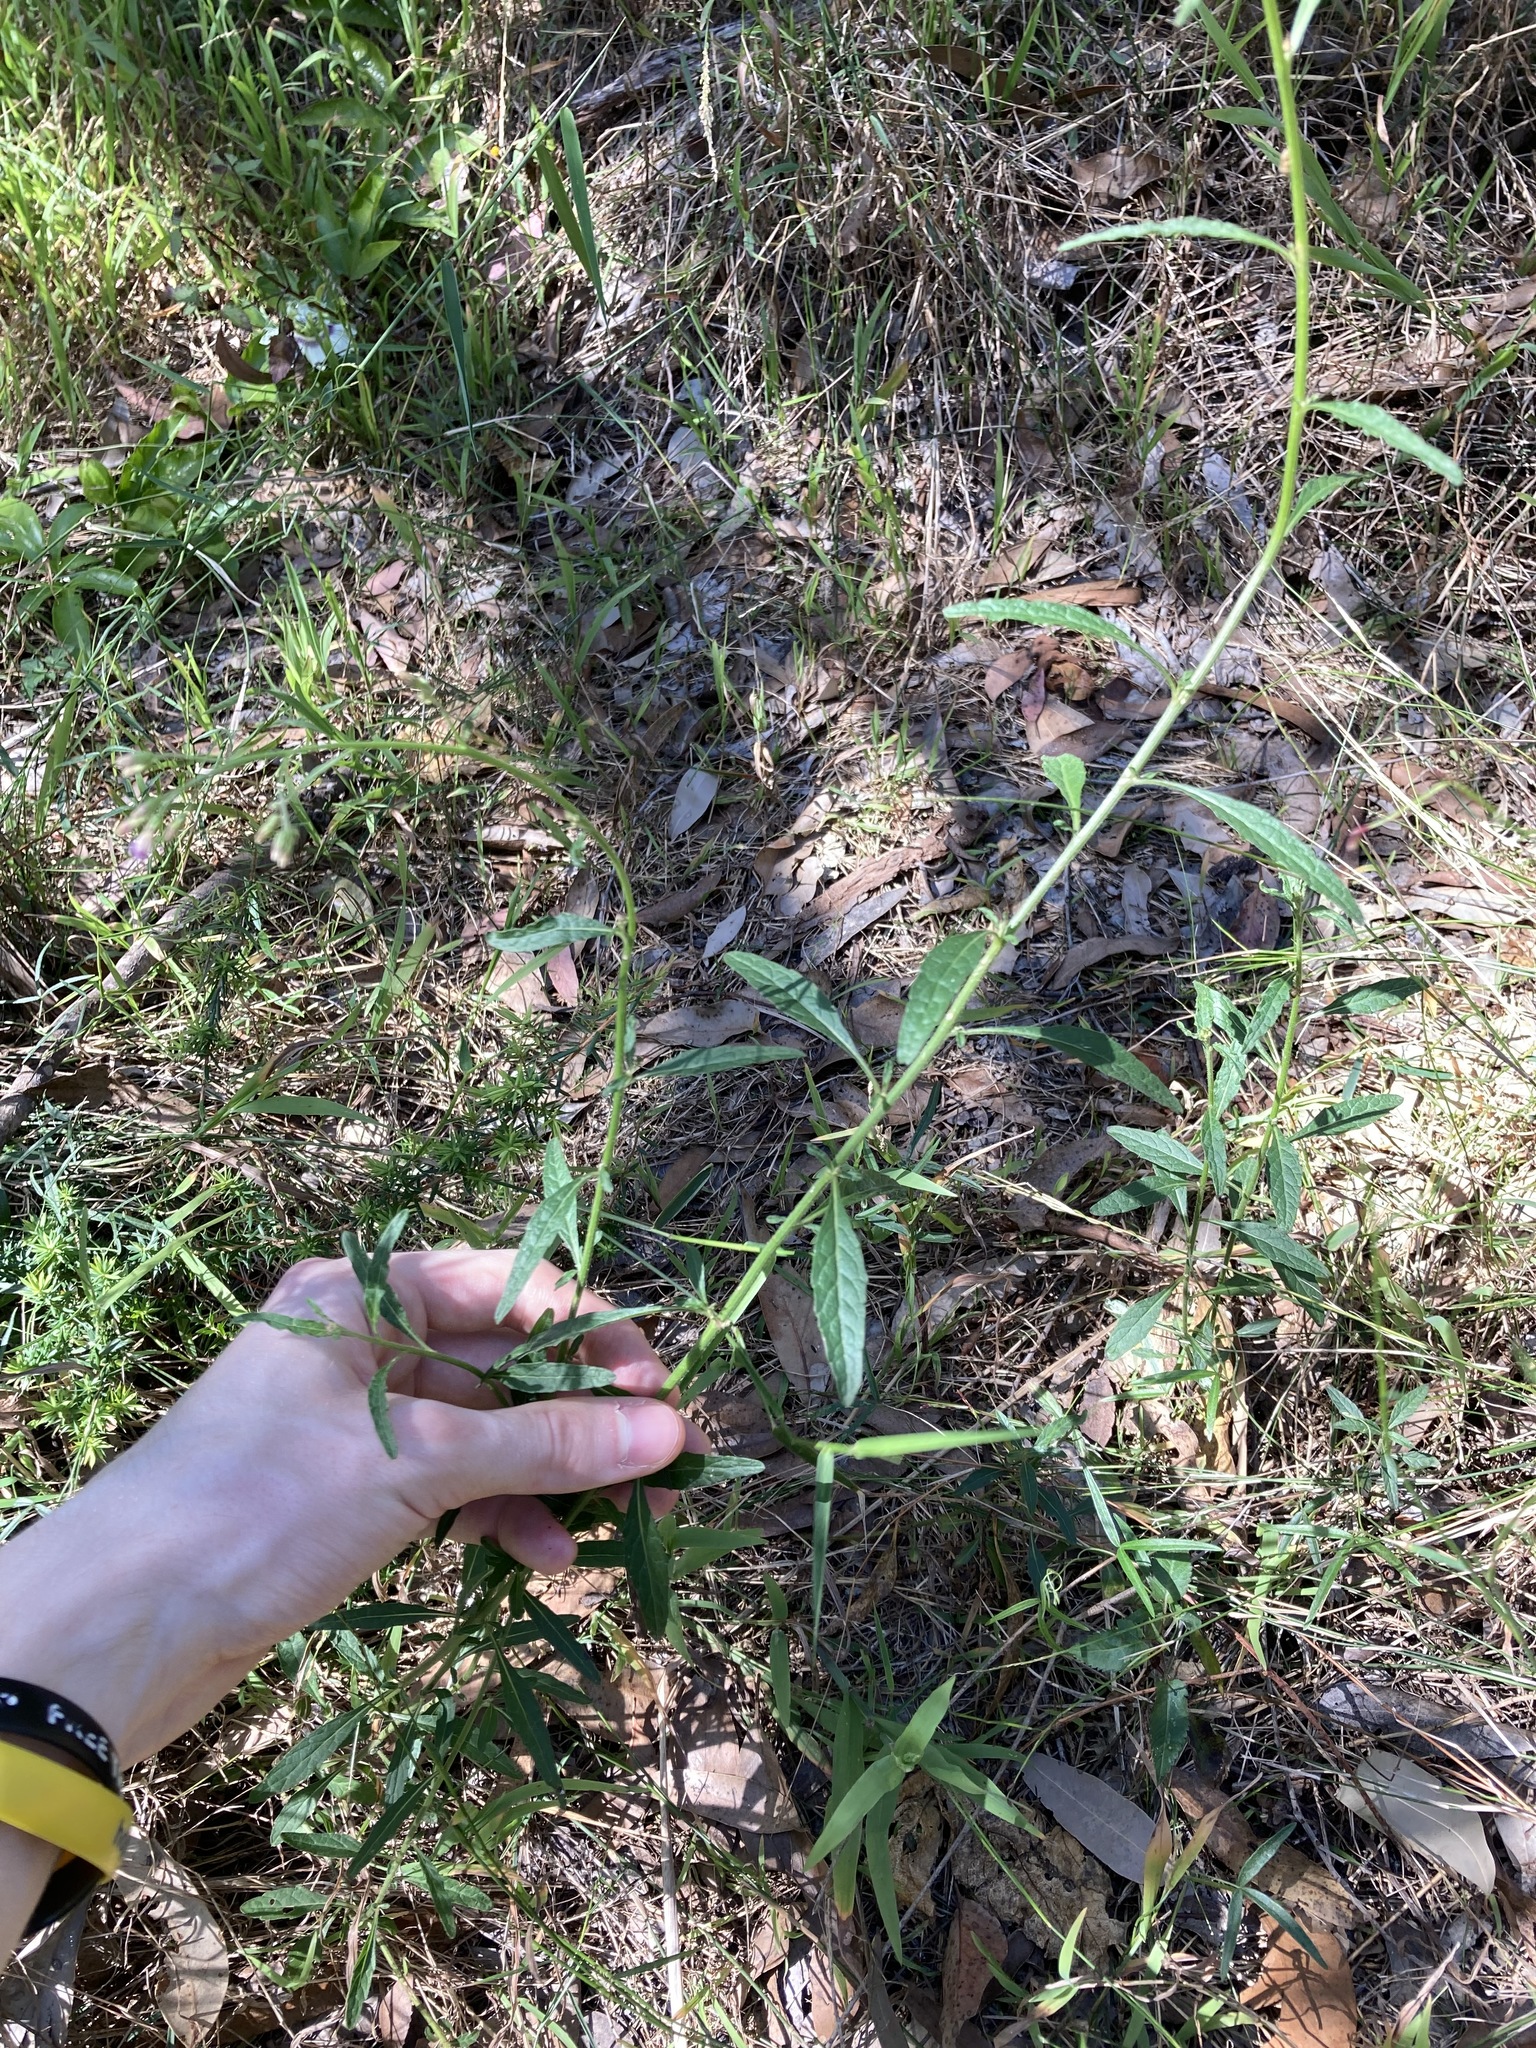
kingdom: Plantae
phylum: Tracheophyta
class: Magnoliopsida
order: Asterales
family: Asteraceae
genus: Cyanthillium
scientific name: Cyanthillium cinereum
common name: Little ironweed
